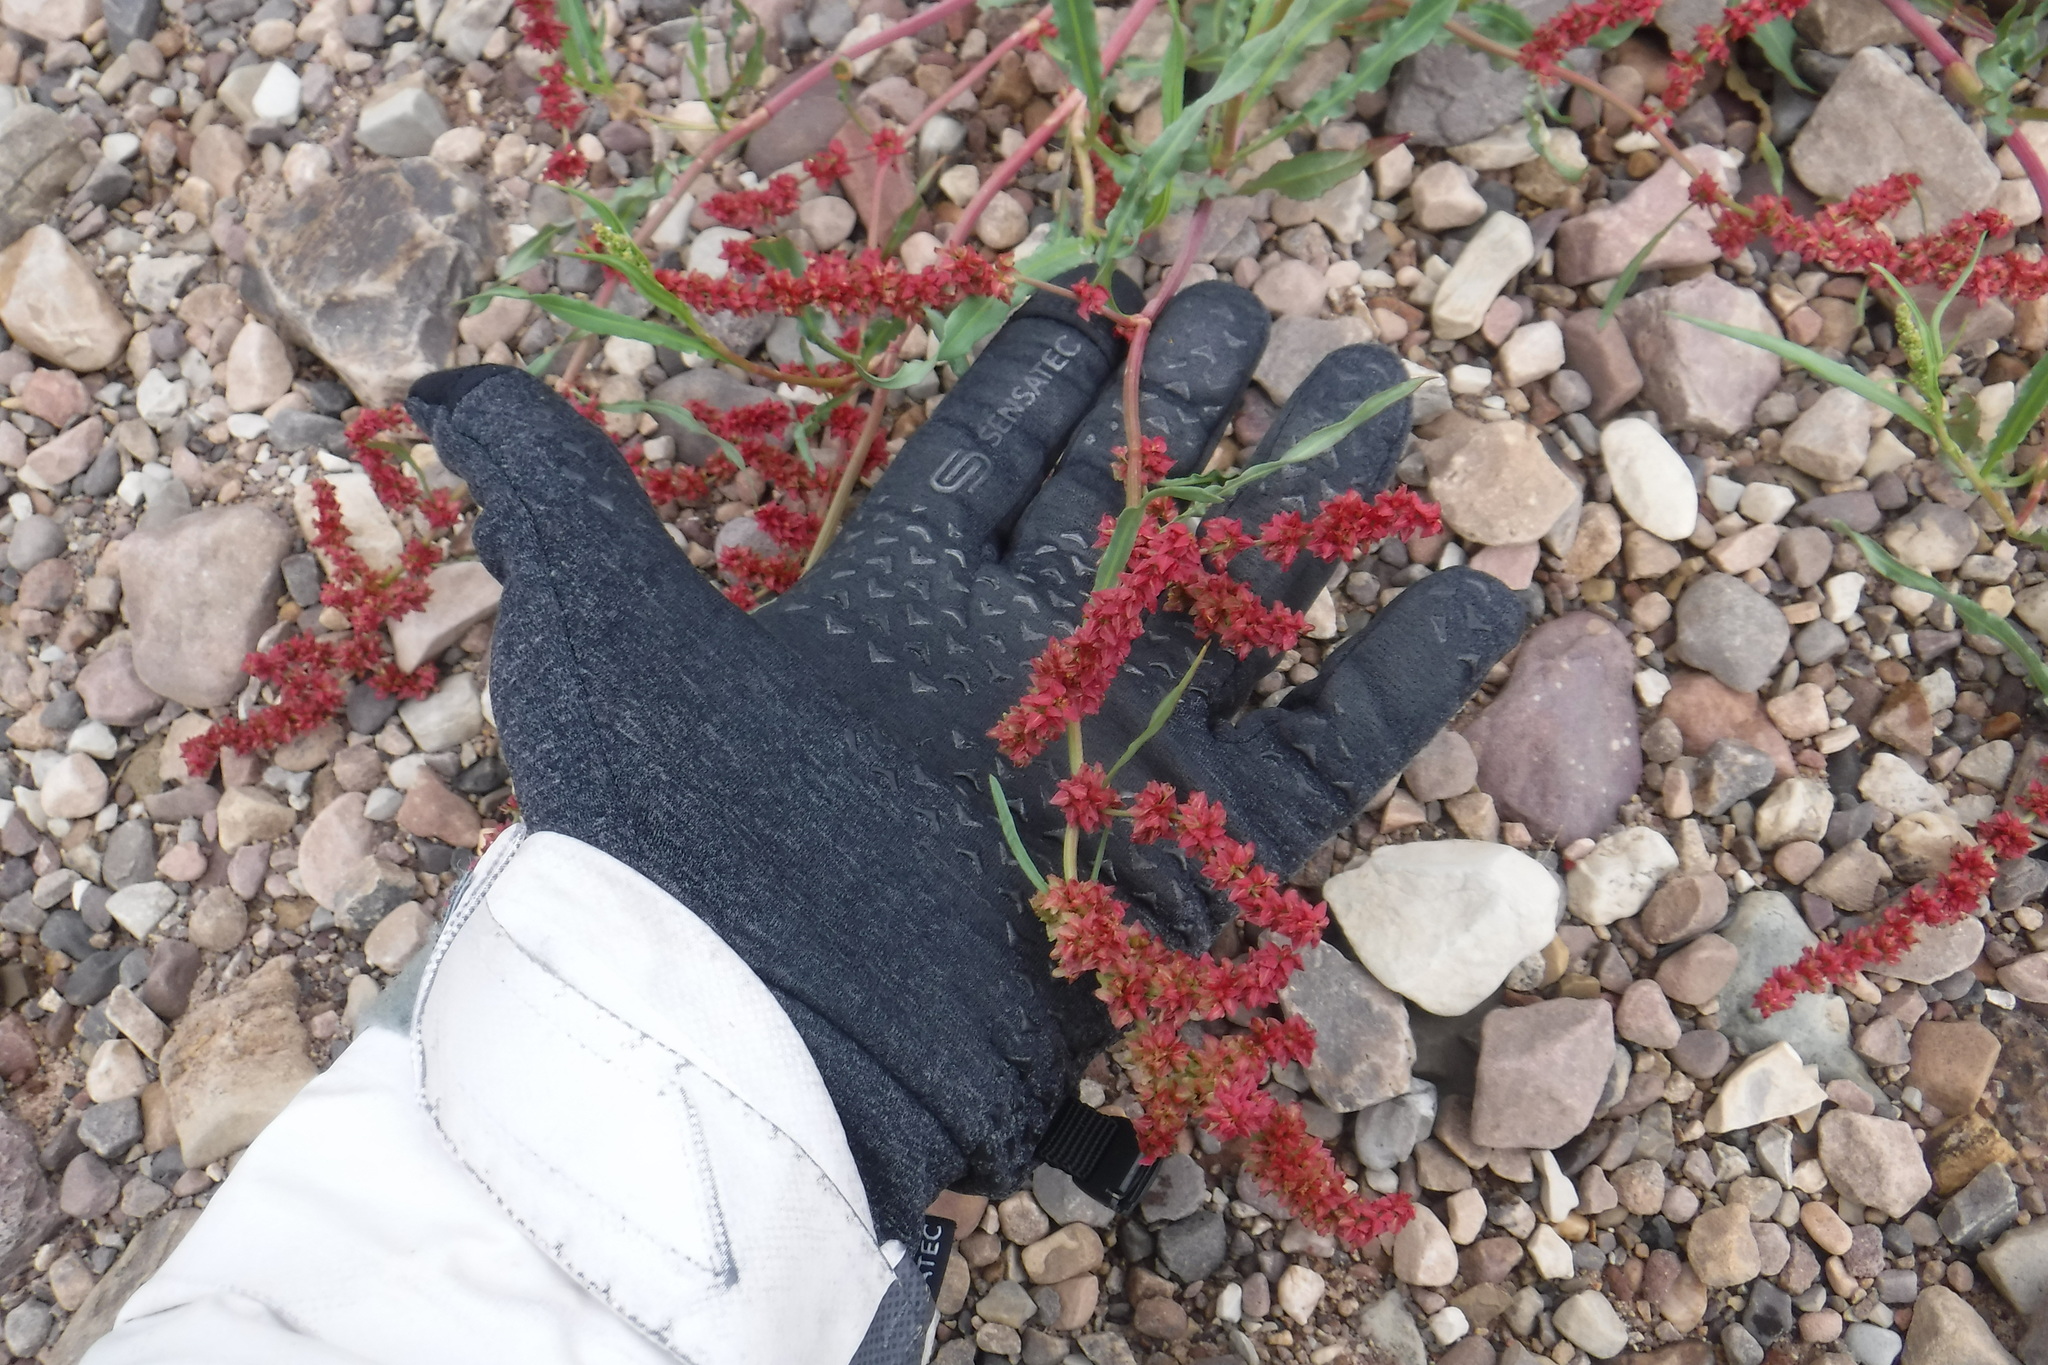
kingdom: Plantae
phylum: Tracheophyta
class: Magnoliopsida
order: Caryophyllales
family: Polygonaceae
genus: Rumex
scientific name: Rumex triangulivalvis
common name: Triangular-valve dock
